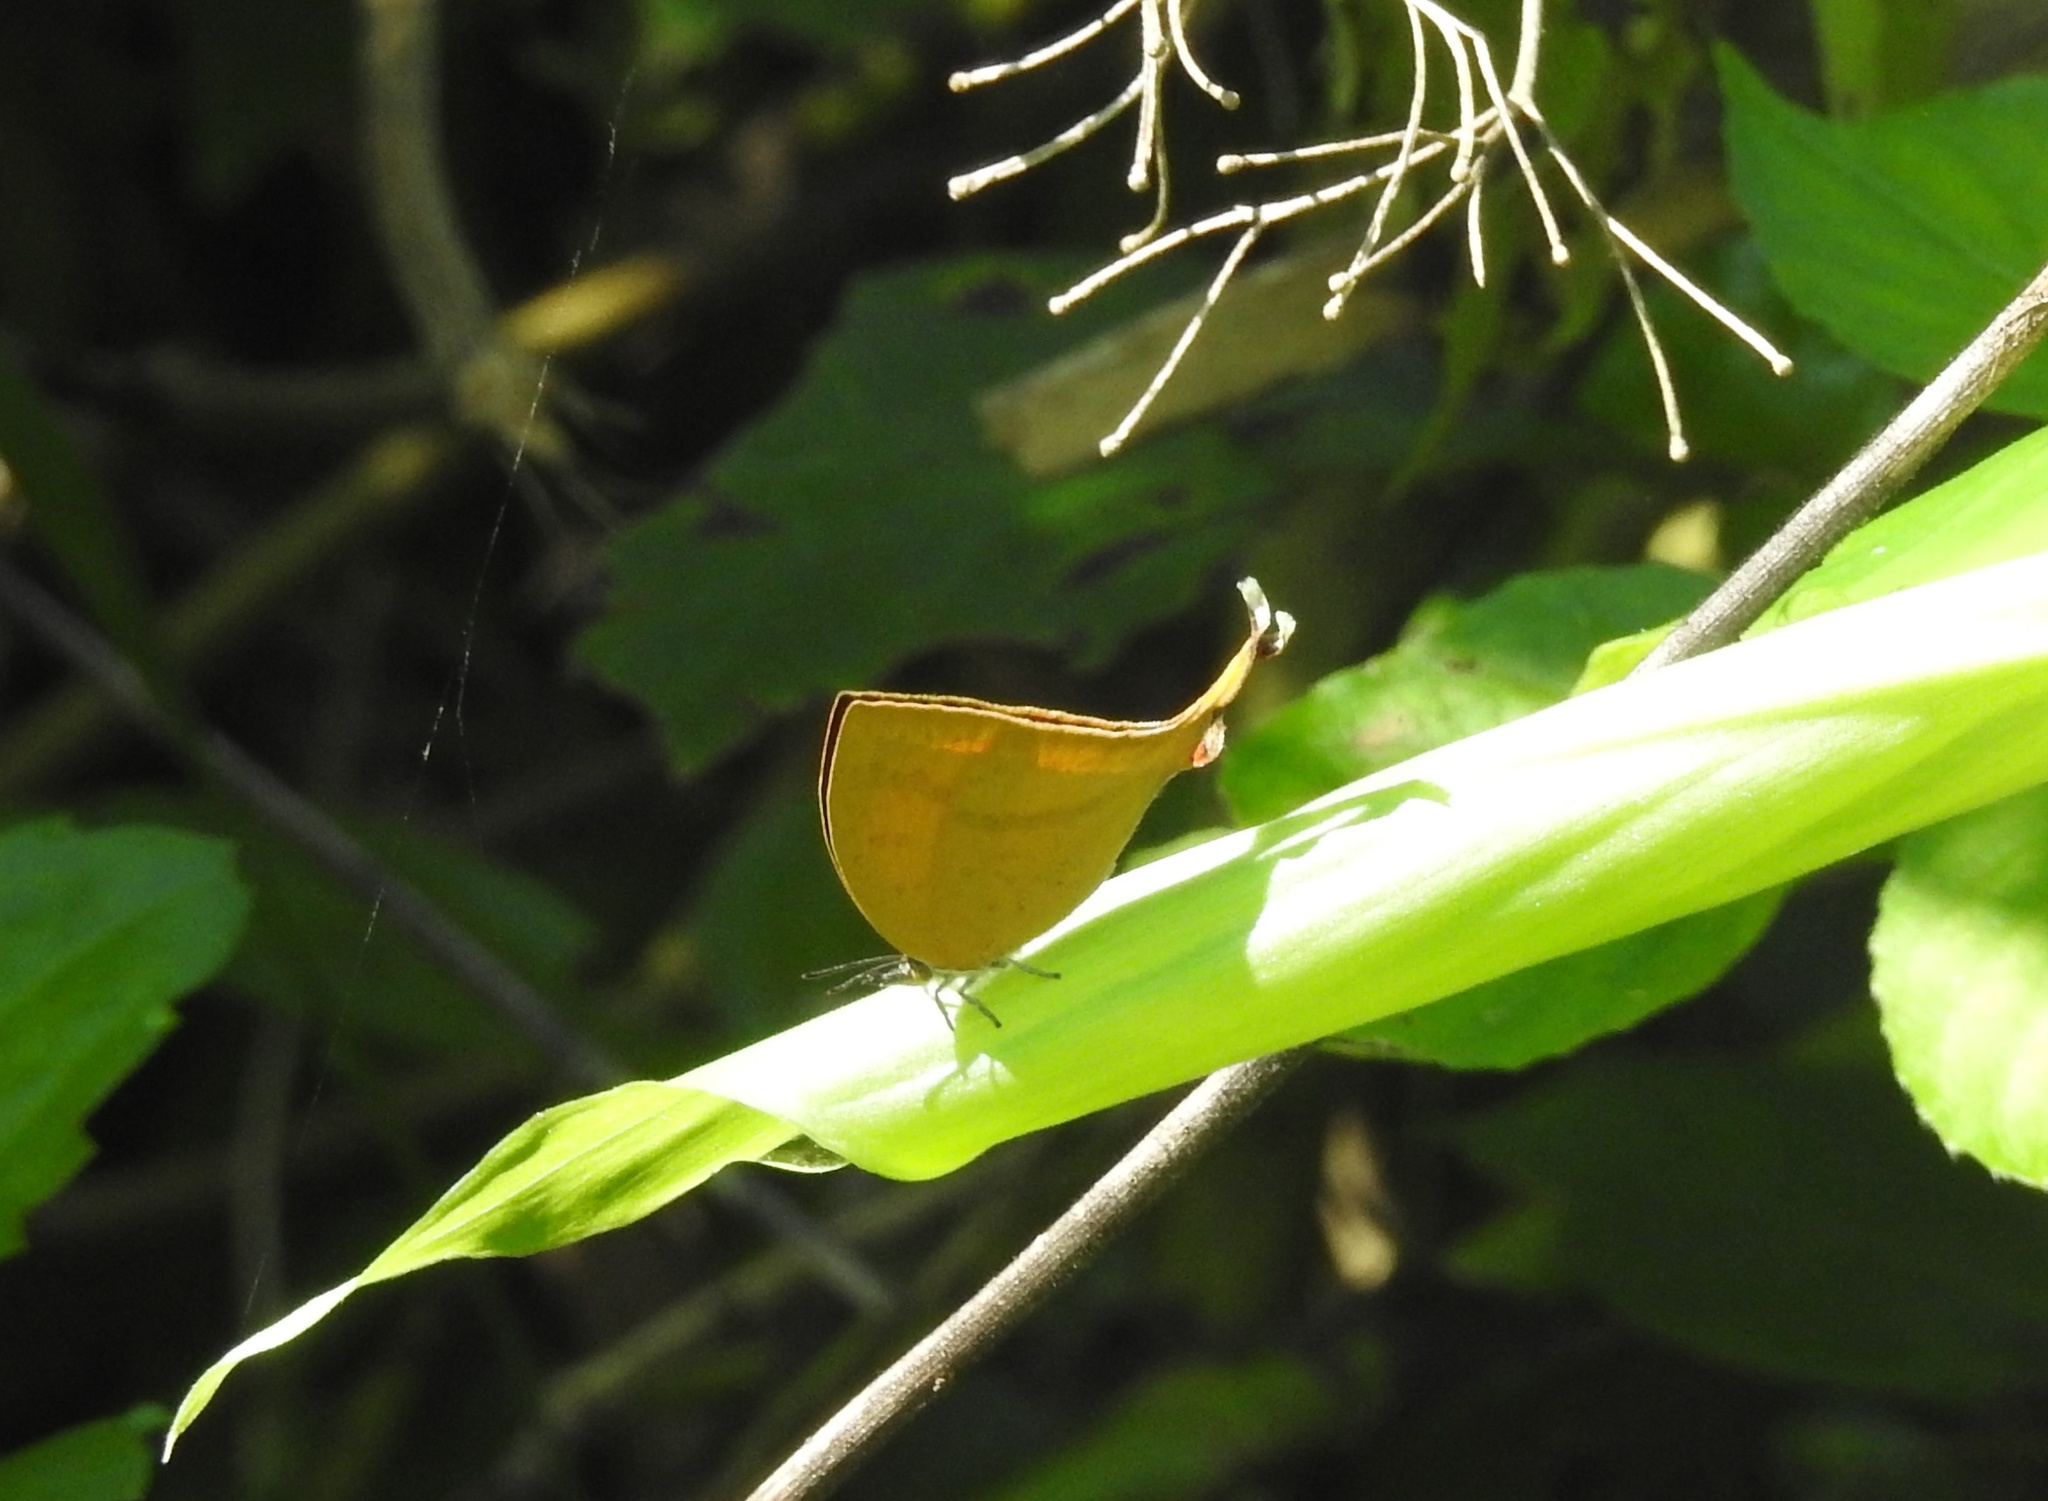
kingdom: Animalia
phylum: Arthropoda
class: Insecta
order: Lepidoptera
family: Lycaenidae
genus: Loxura
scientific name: Loxura atymnus
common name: Common yamfly
